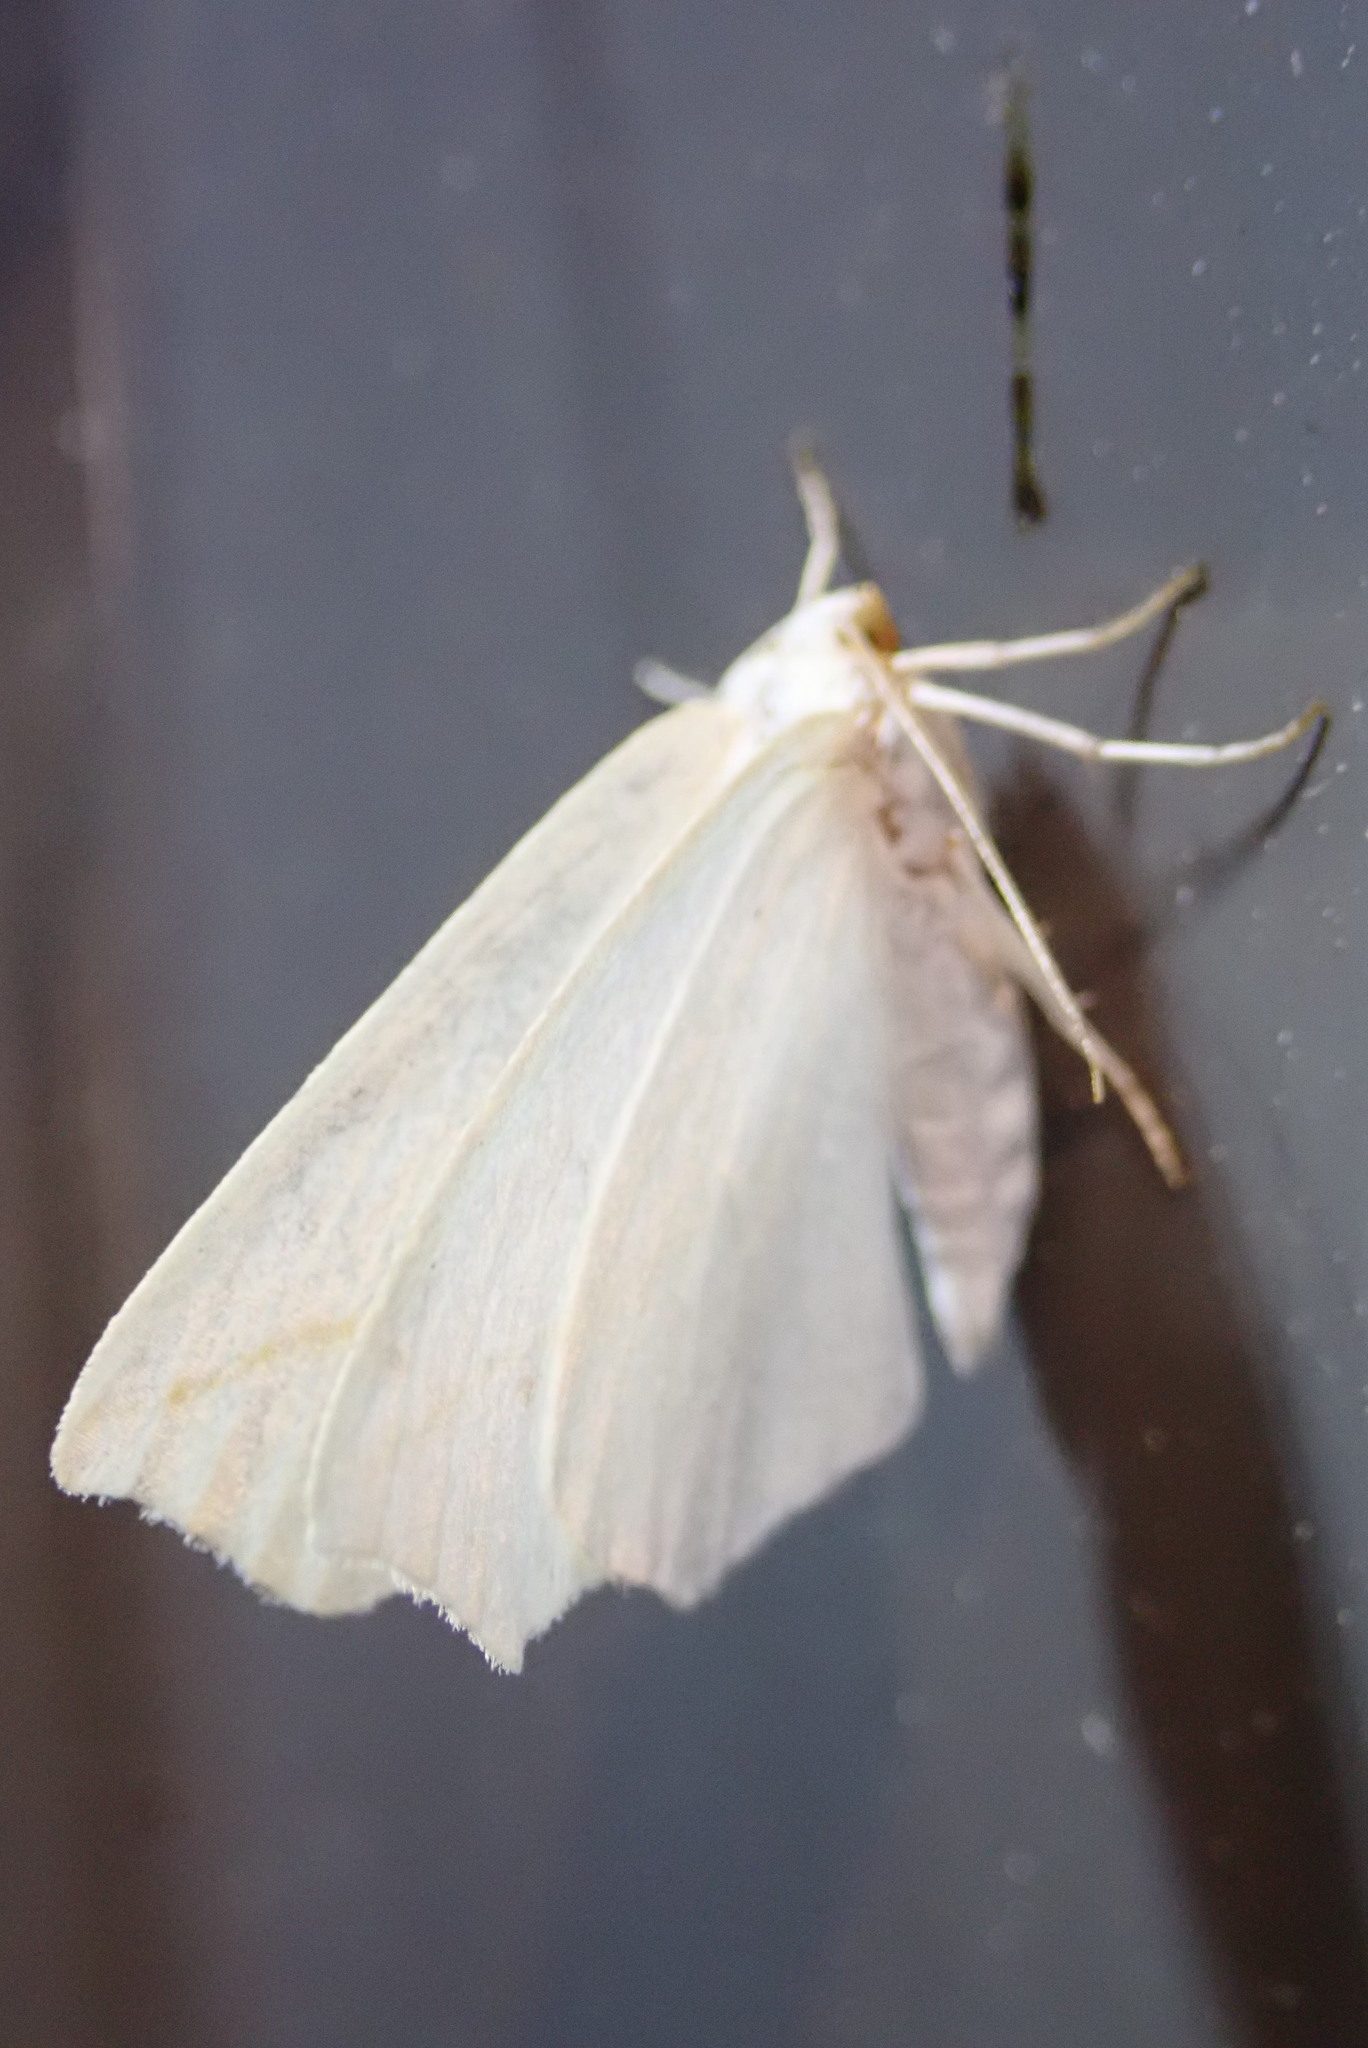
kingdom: Animalia
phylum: Arthropoda
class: Insecta
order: Lepidoptera
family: Geometridae
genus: Tetracis
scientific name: Tetracis cachexiata
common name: White slant-line
